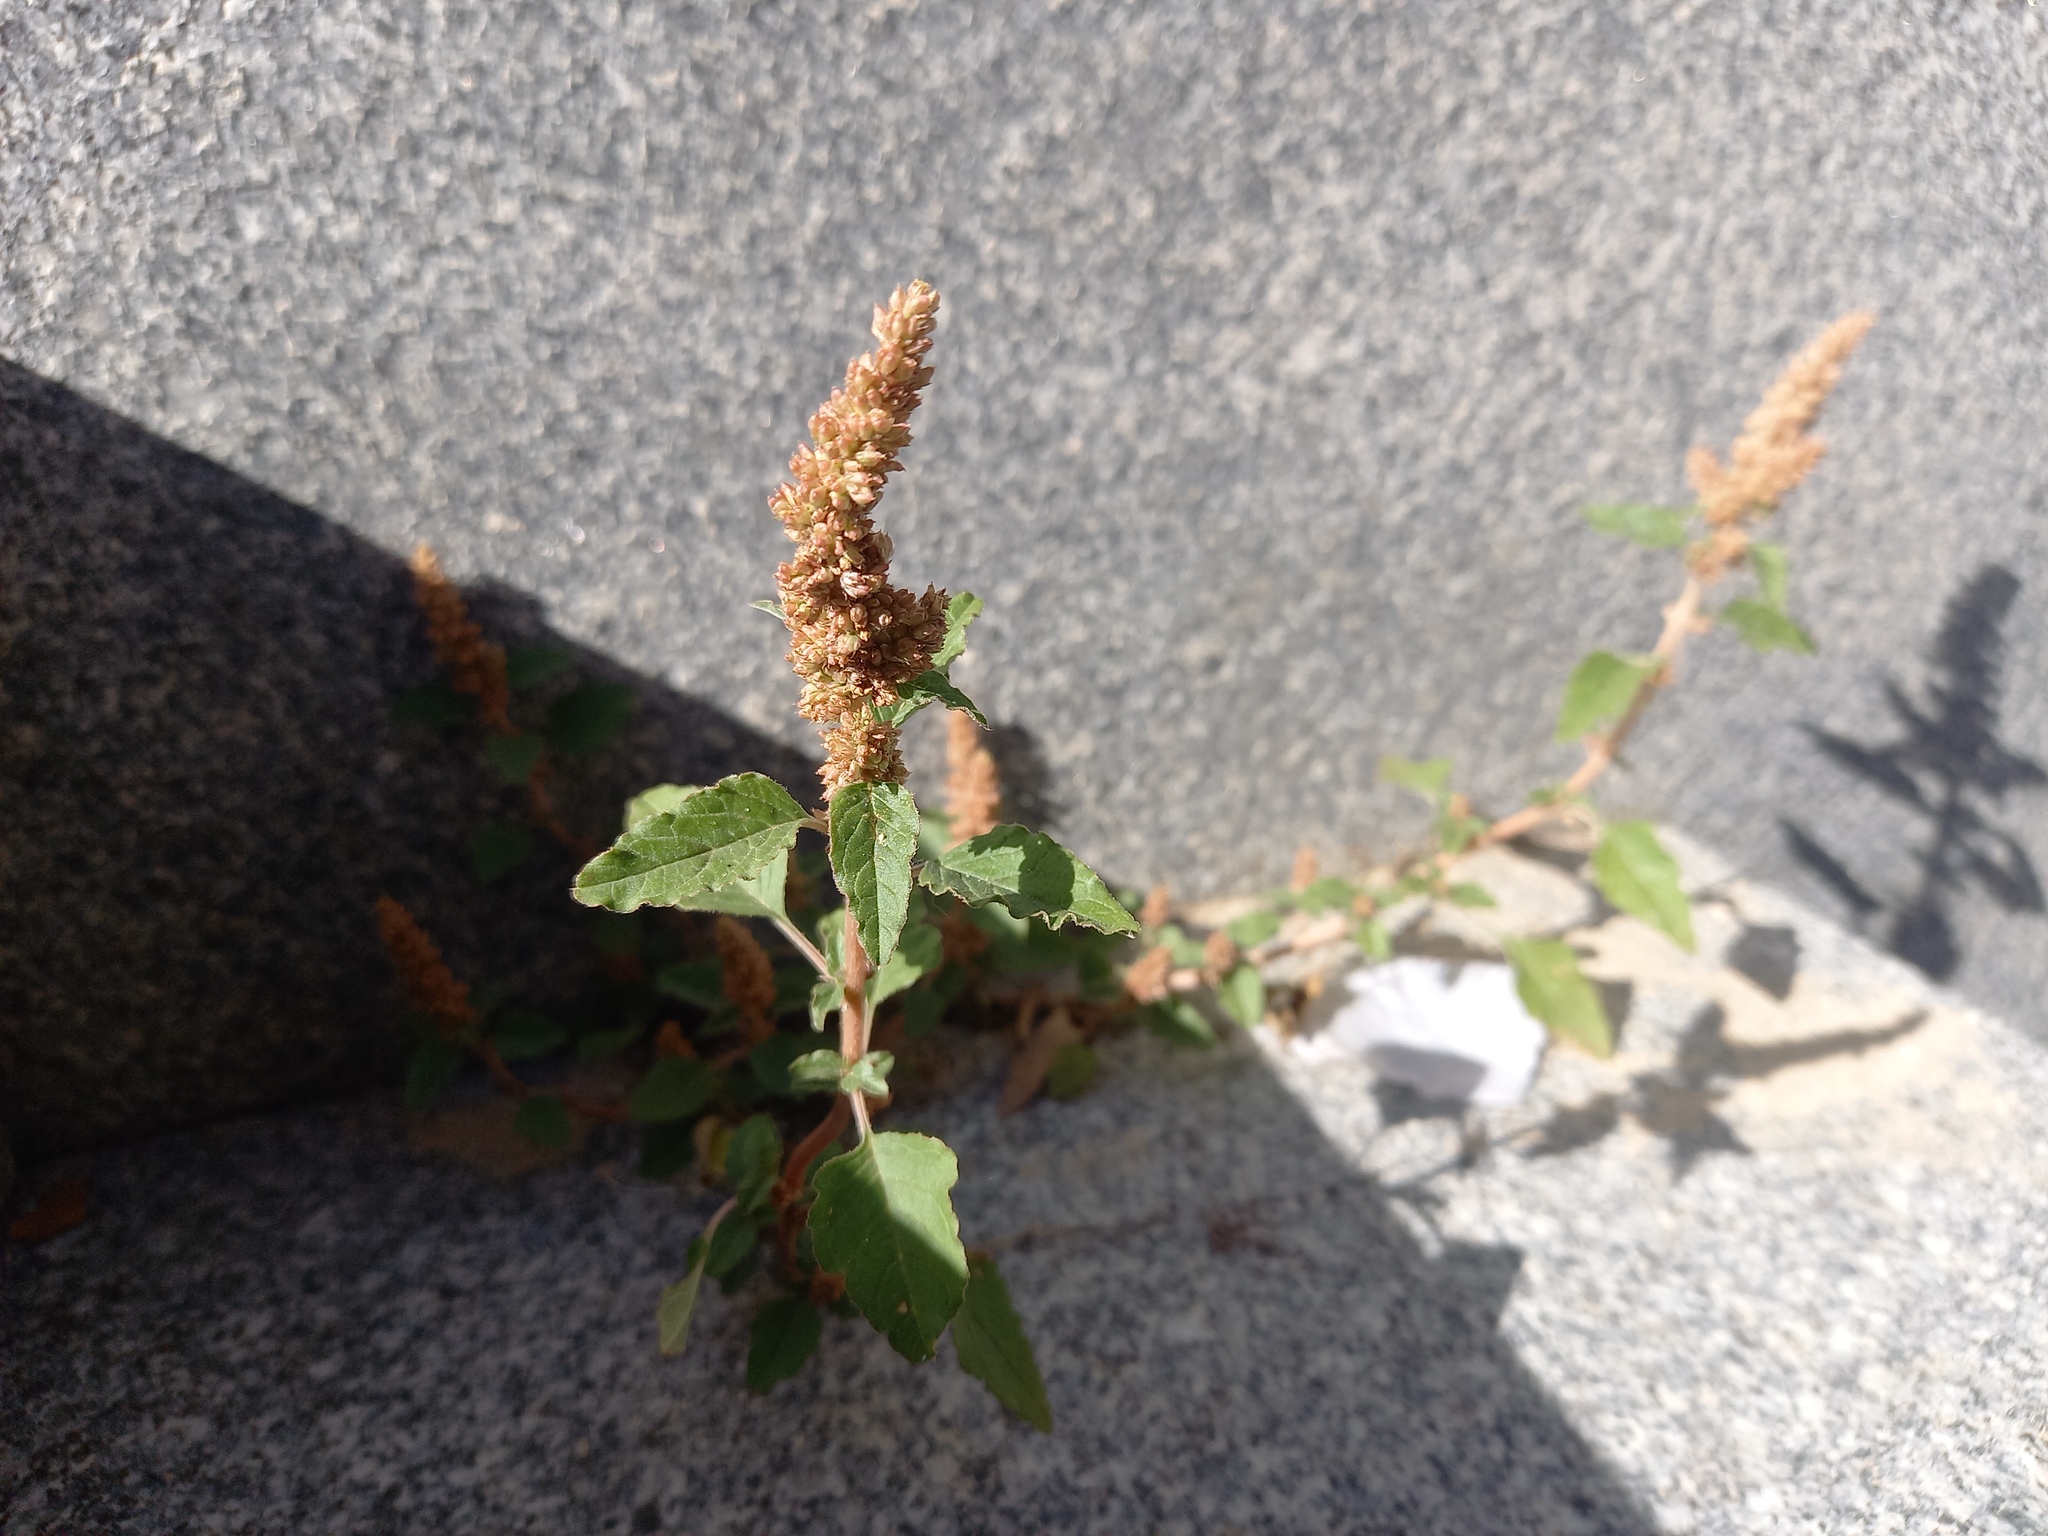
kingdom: Plantae
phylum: Tracheophyta
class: Magnoliopsida
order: Caryophyllales
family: Amaranthaceae
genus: Amaranthus
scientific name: Amaranthus deflexus
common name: Perennial pigweed
